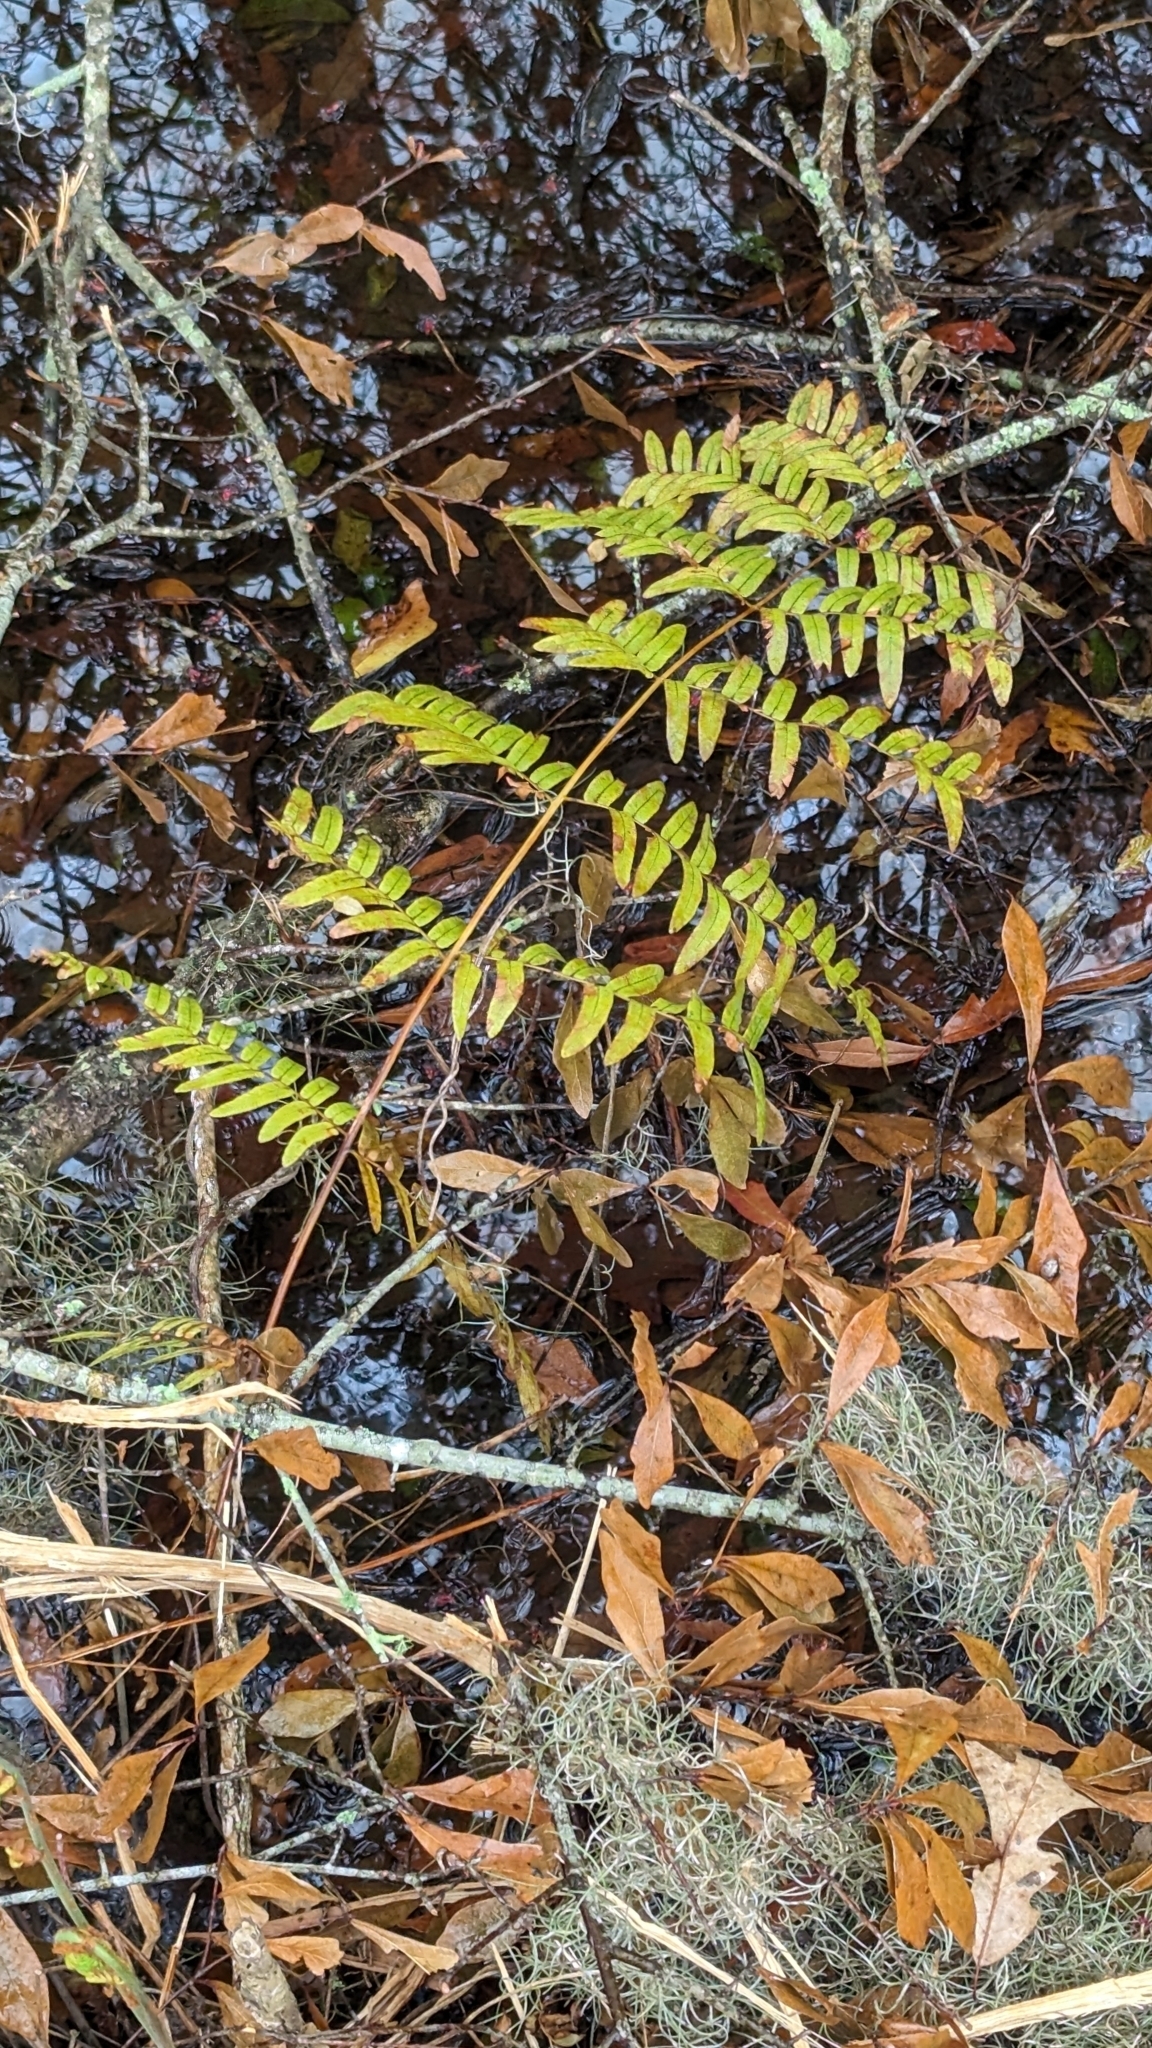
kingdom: Plantae
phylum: Tracheophyta
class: Polypodiopsida
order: Osmundales
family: Osmundaceae
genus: Osmunda
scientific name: Osmunda spectabilis
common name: American royal fern
